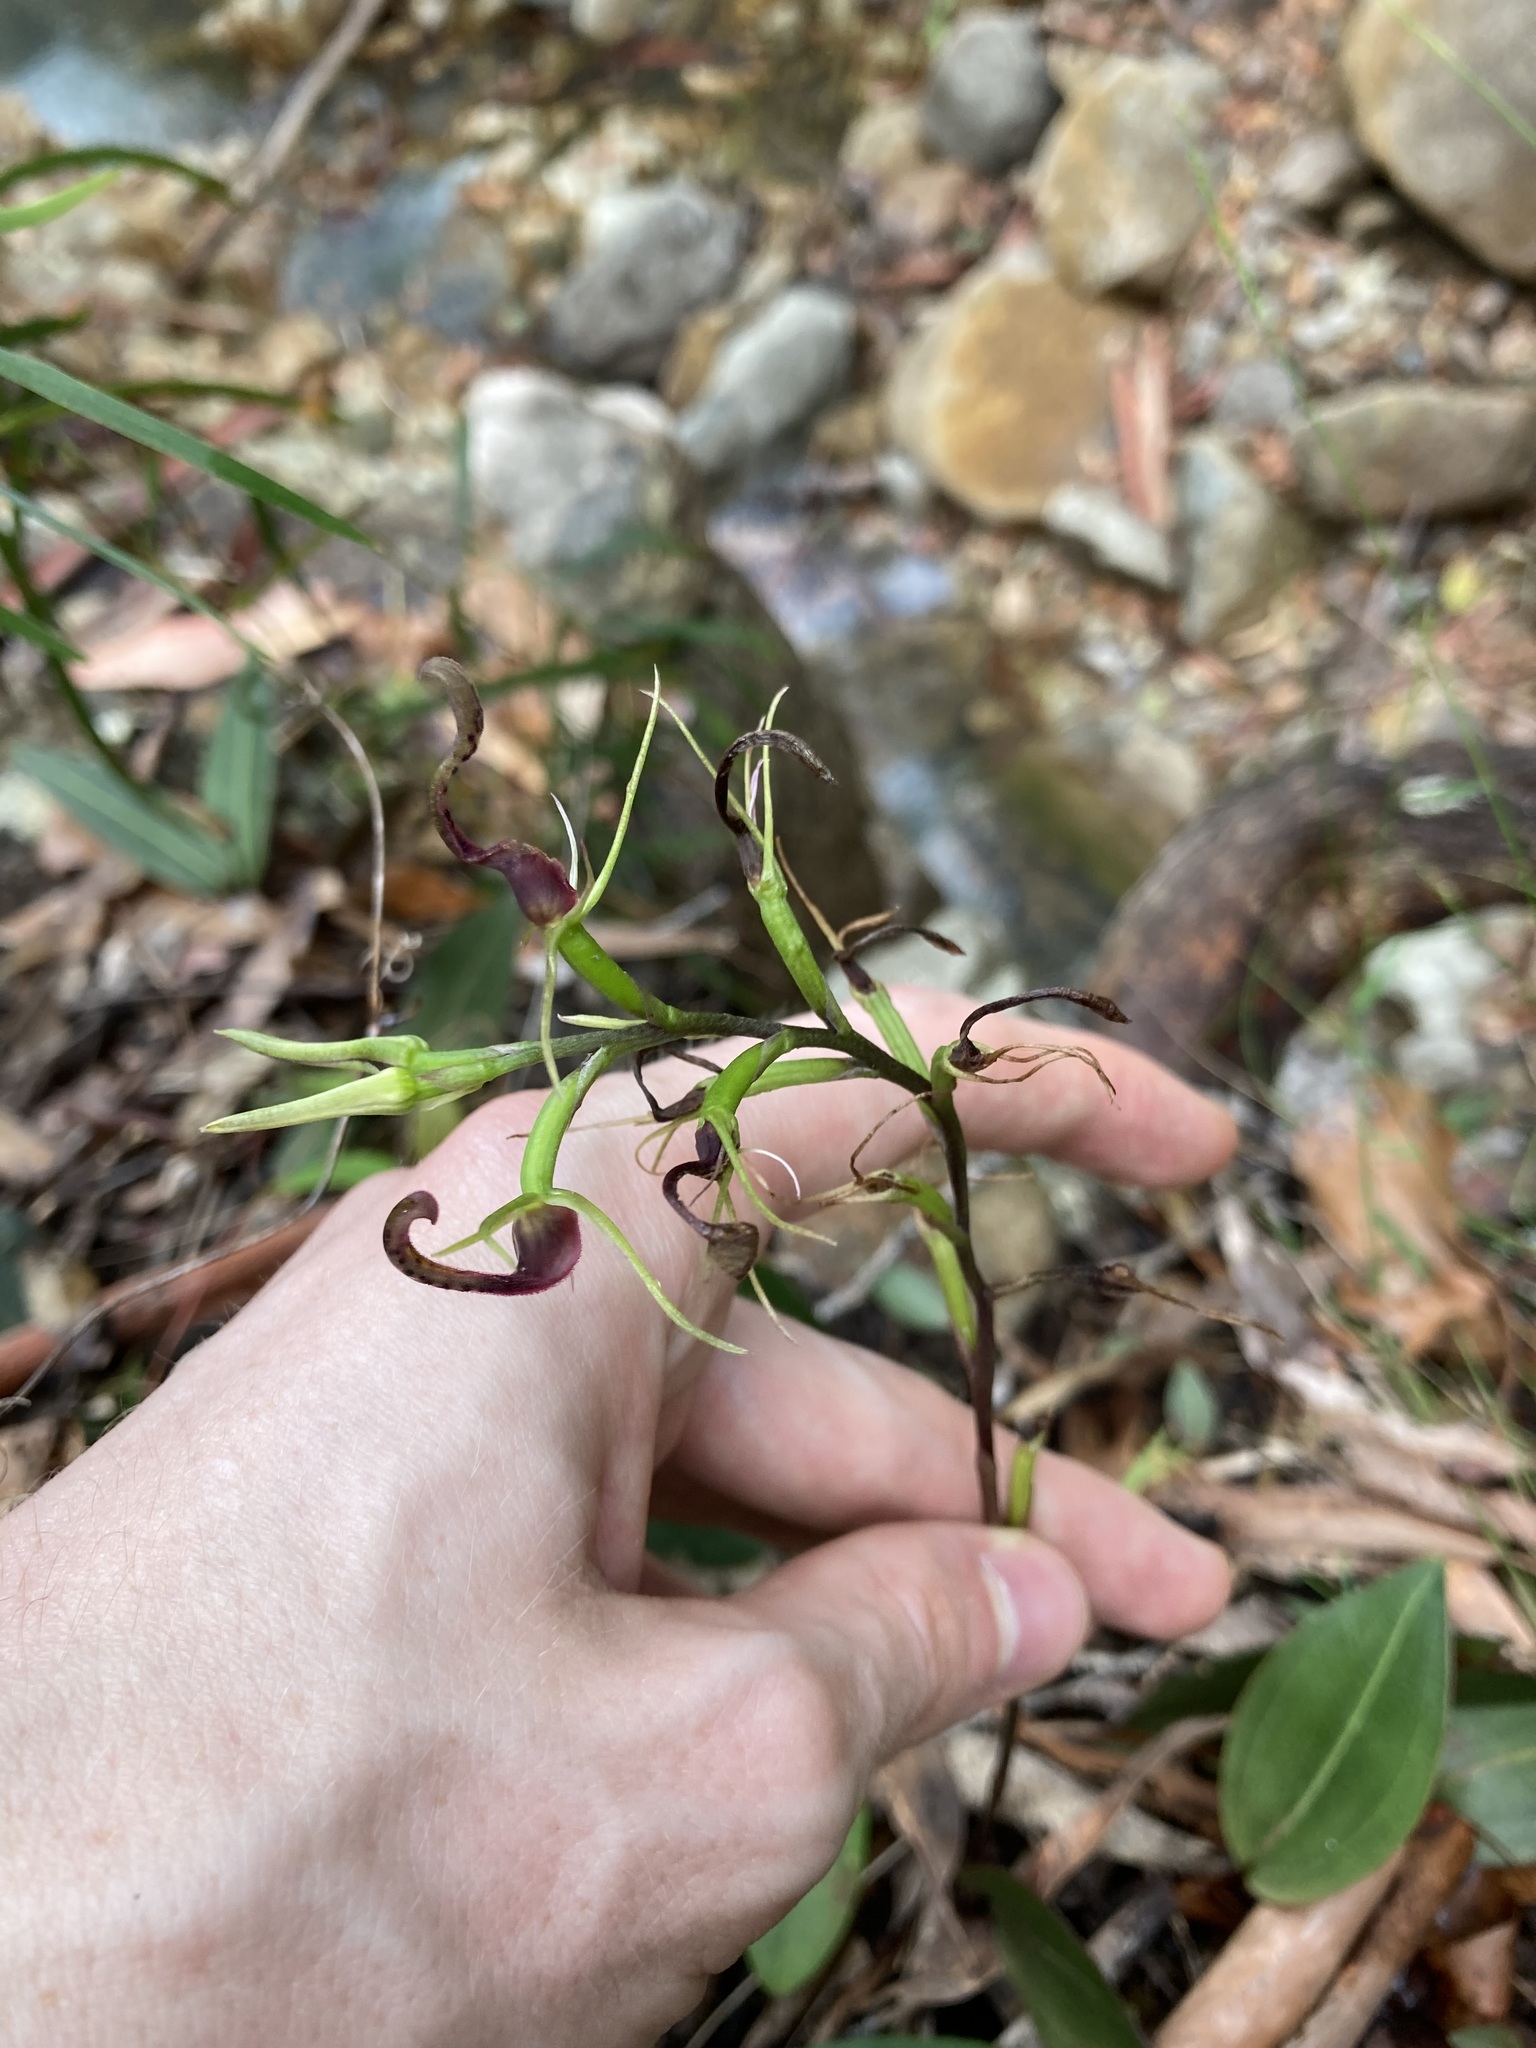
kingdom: Plantae
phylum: Tracheophyta
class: Liliopsida
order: Asparagales
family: Orchidaceae
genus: Cryptostylis
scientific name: Cryptostylis leptochila
